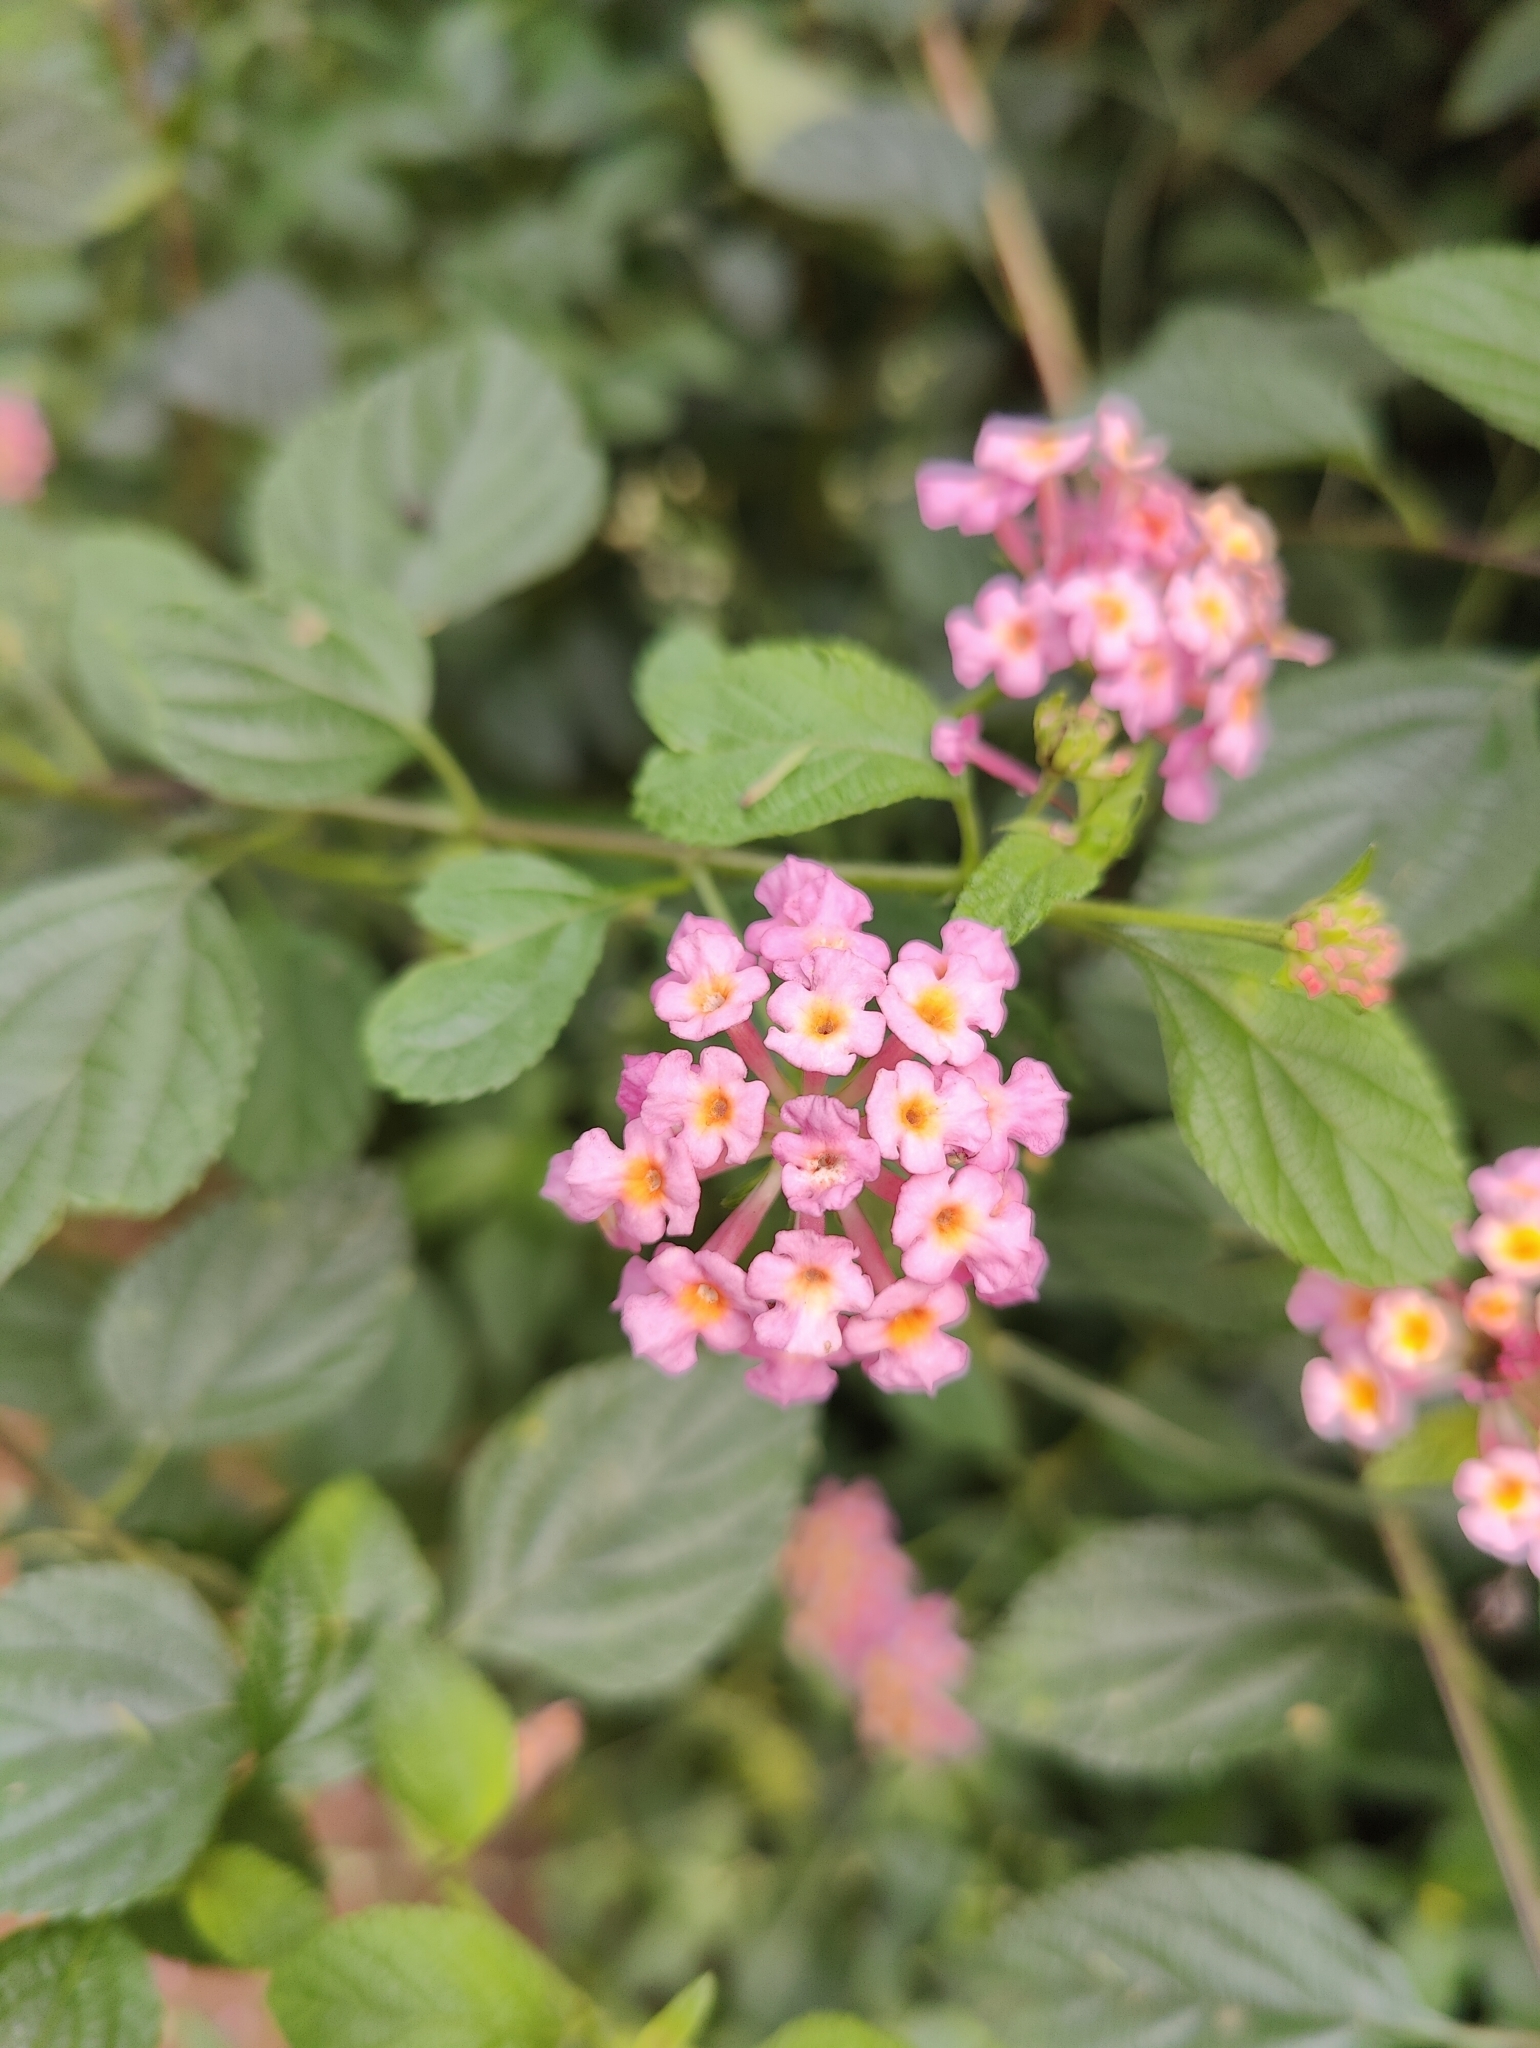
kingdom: Plantae
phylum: Tracheophyta
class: Magnoliopsida
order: Lamiales
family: Verbenaceae
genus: Lantana
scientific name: Lantana camara
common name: Lantana
